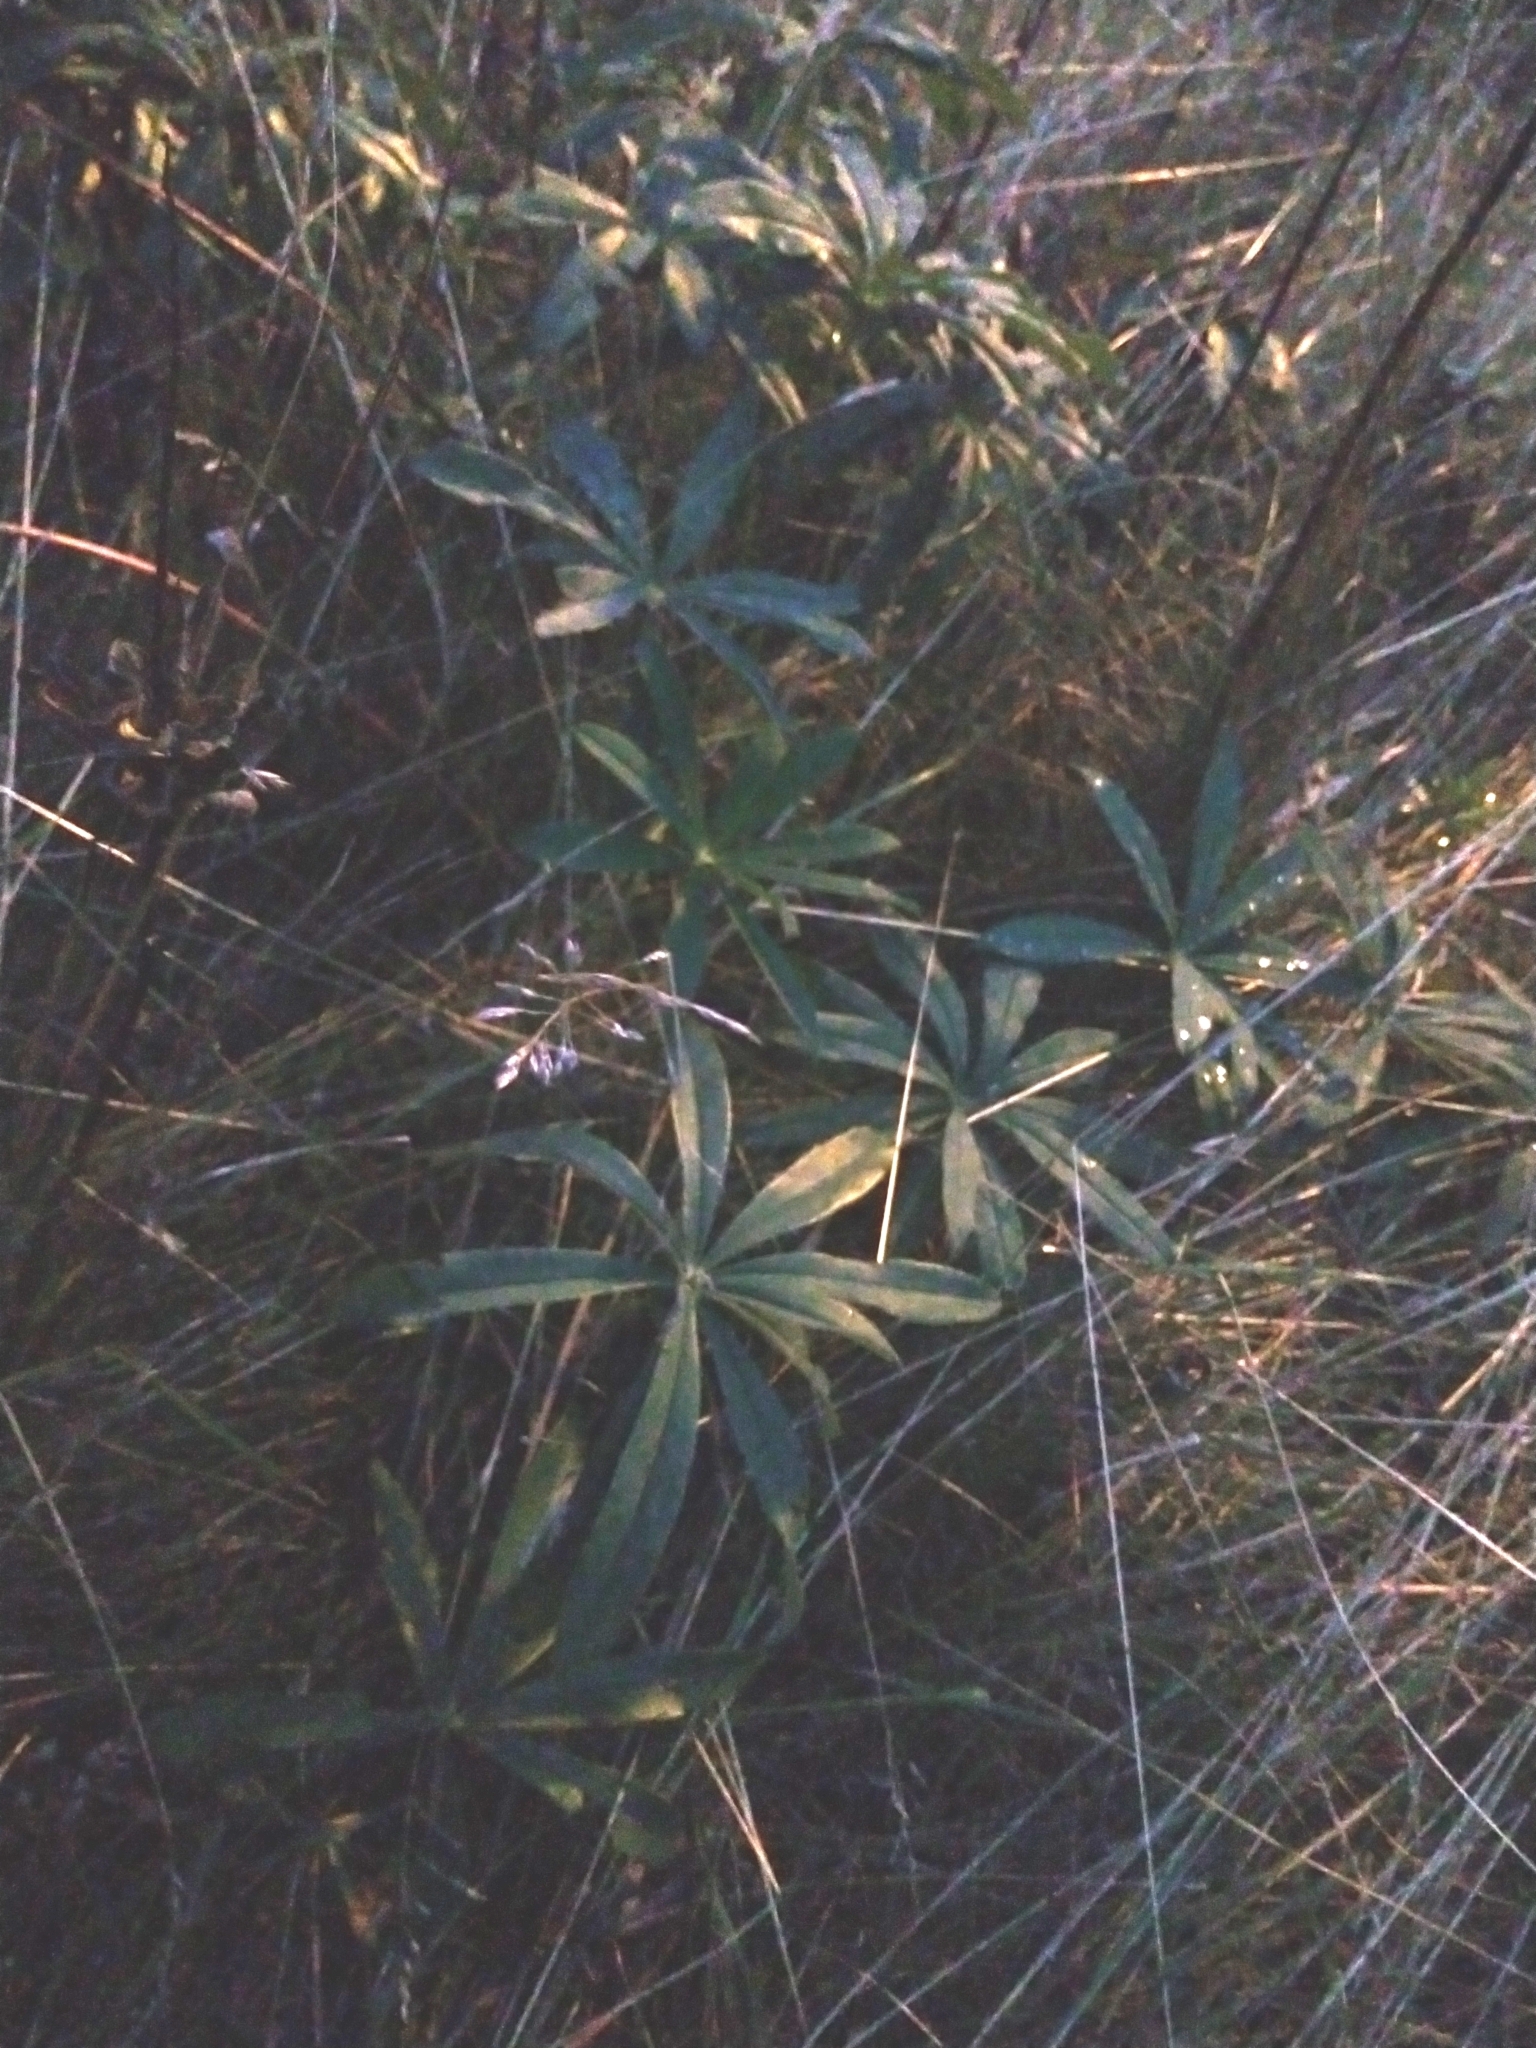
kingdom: Plantae
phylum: Tracheophyta
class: Magnoliopsida
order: Fabales
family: Fabaceae
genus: Lupinus
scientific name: Lupinus polyphyllus
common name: Garden lupin
